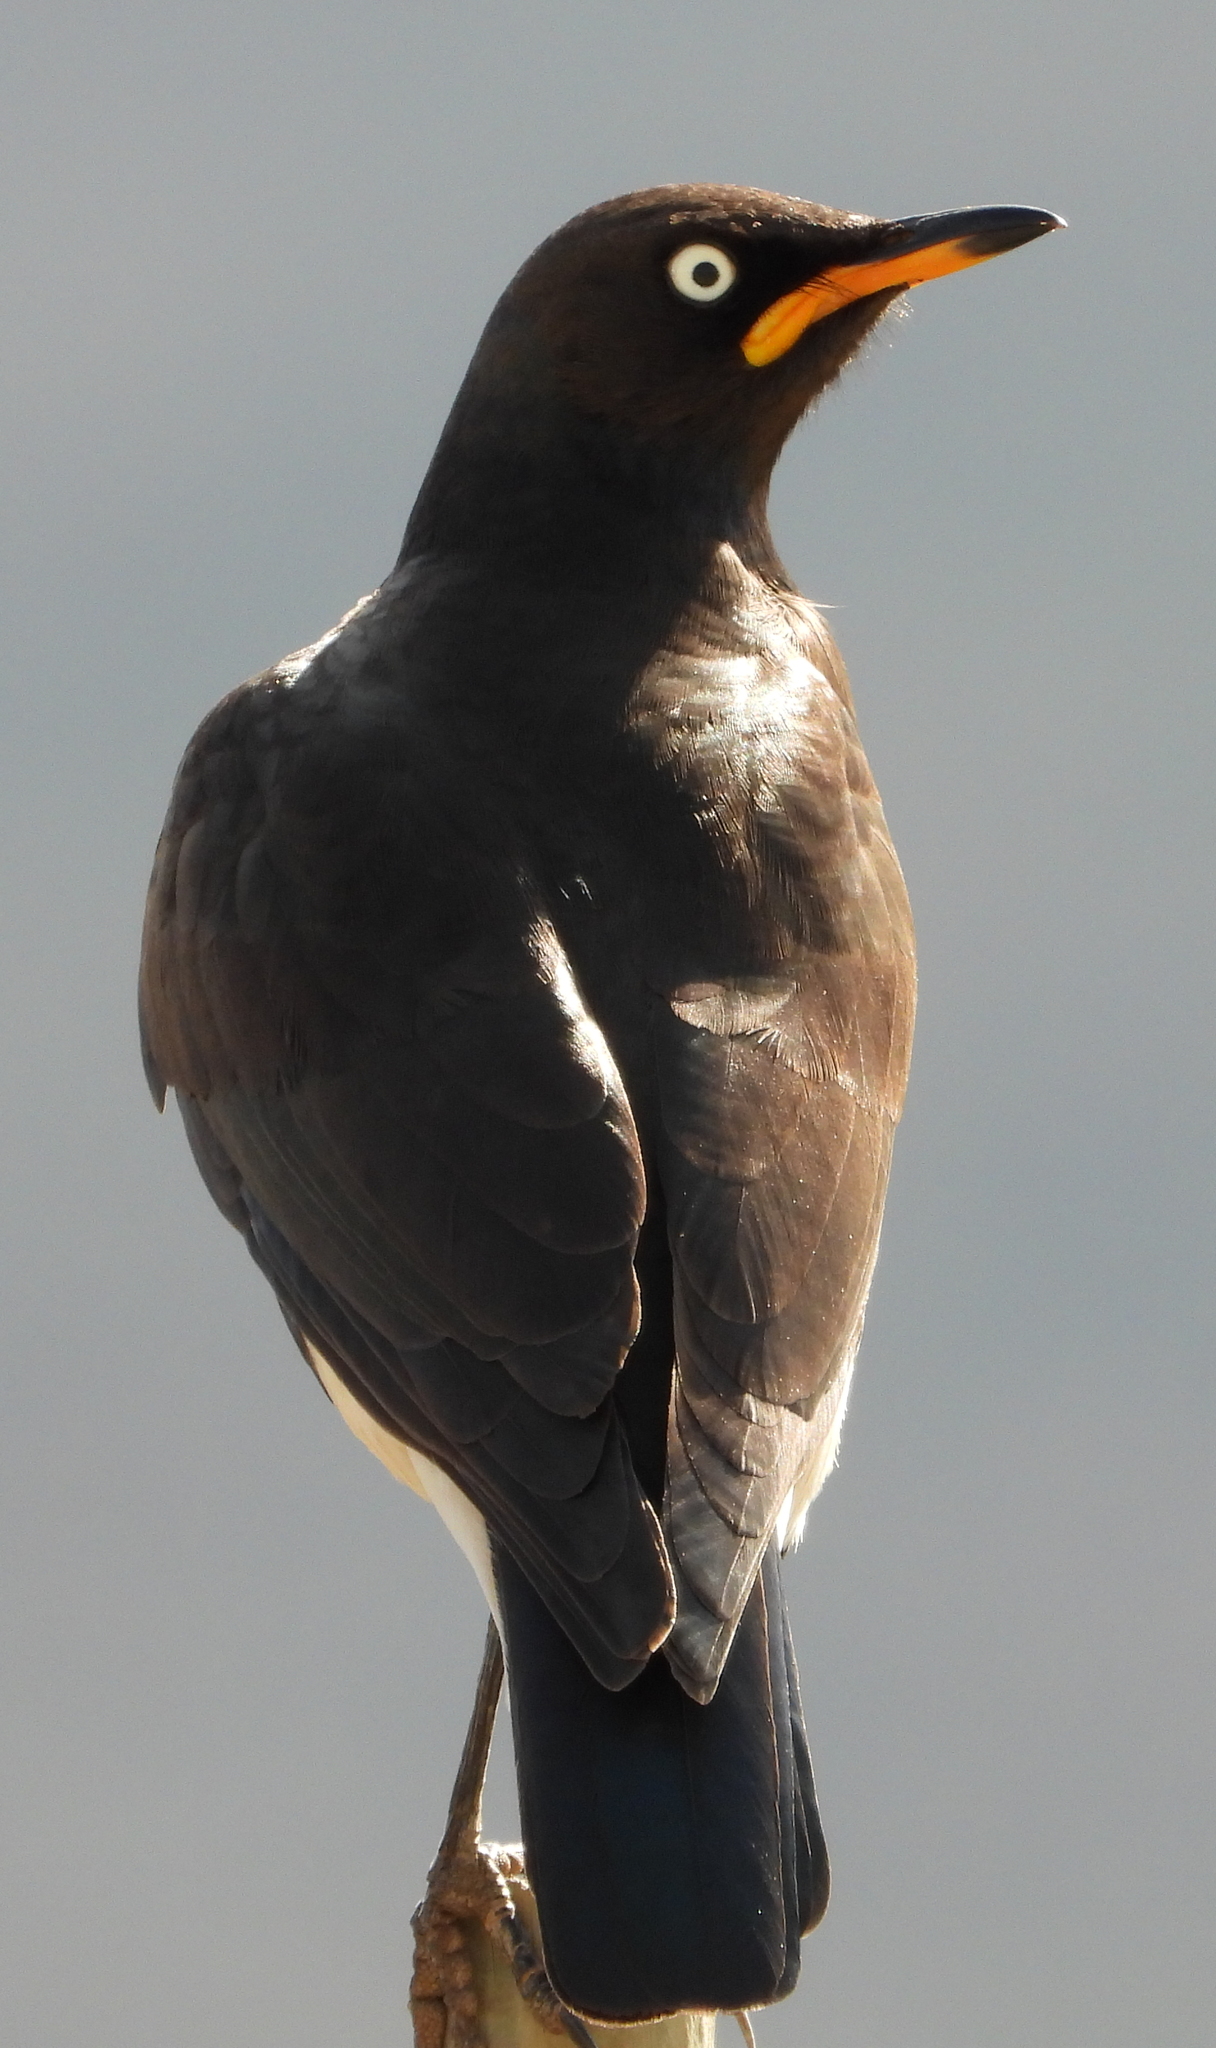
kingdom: Animalia
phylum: Chordata
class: Aves
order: Passeriformes
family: Sturnidae
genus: Lamprotornis
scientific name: Lamprotornis bicolor
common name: Pied starling
